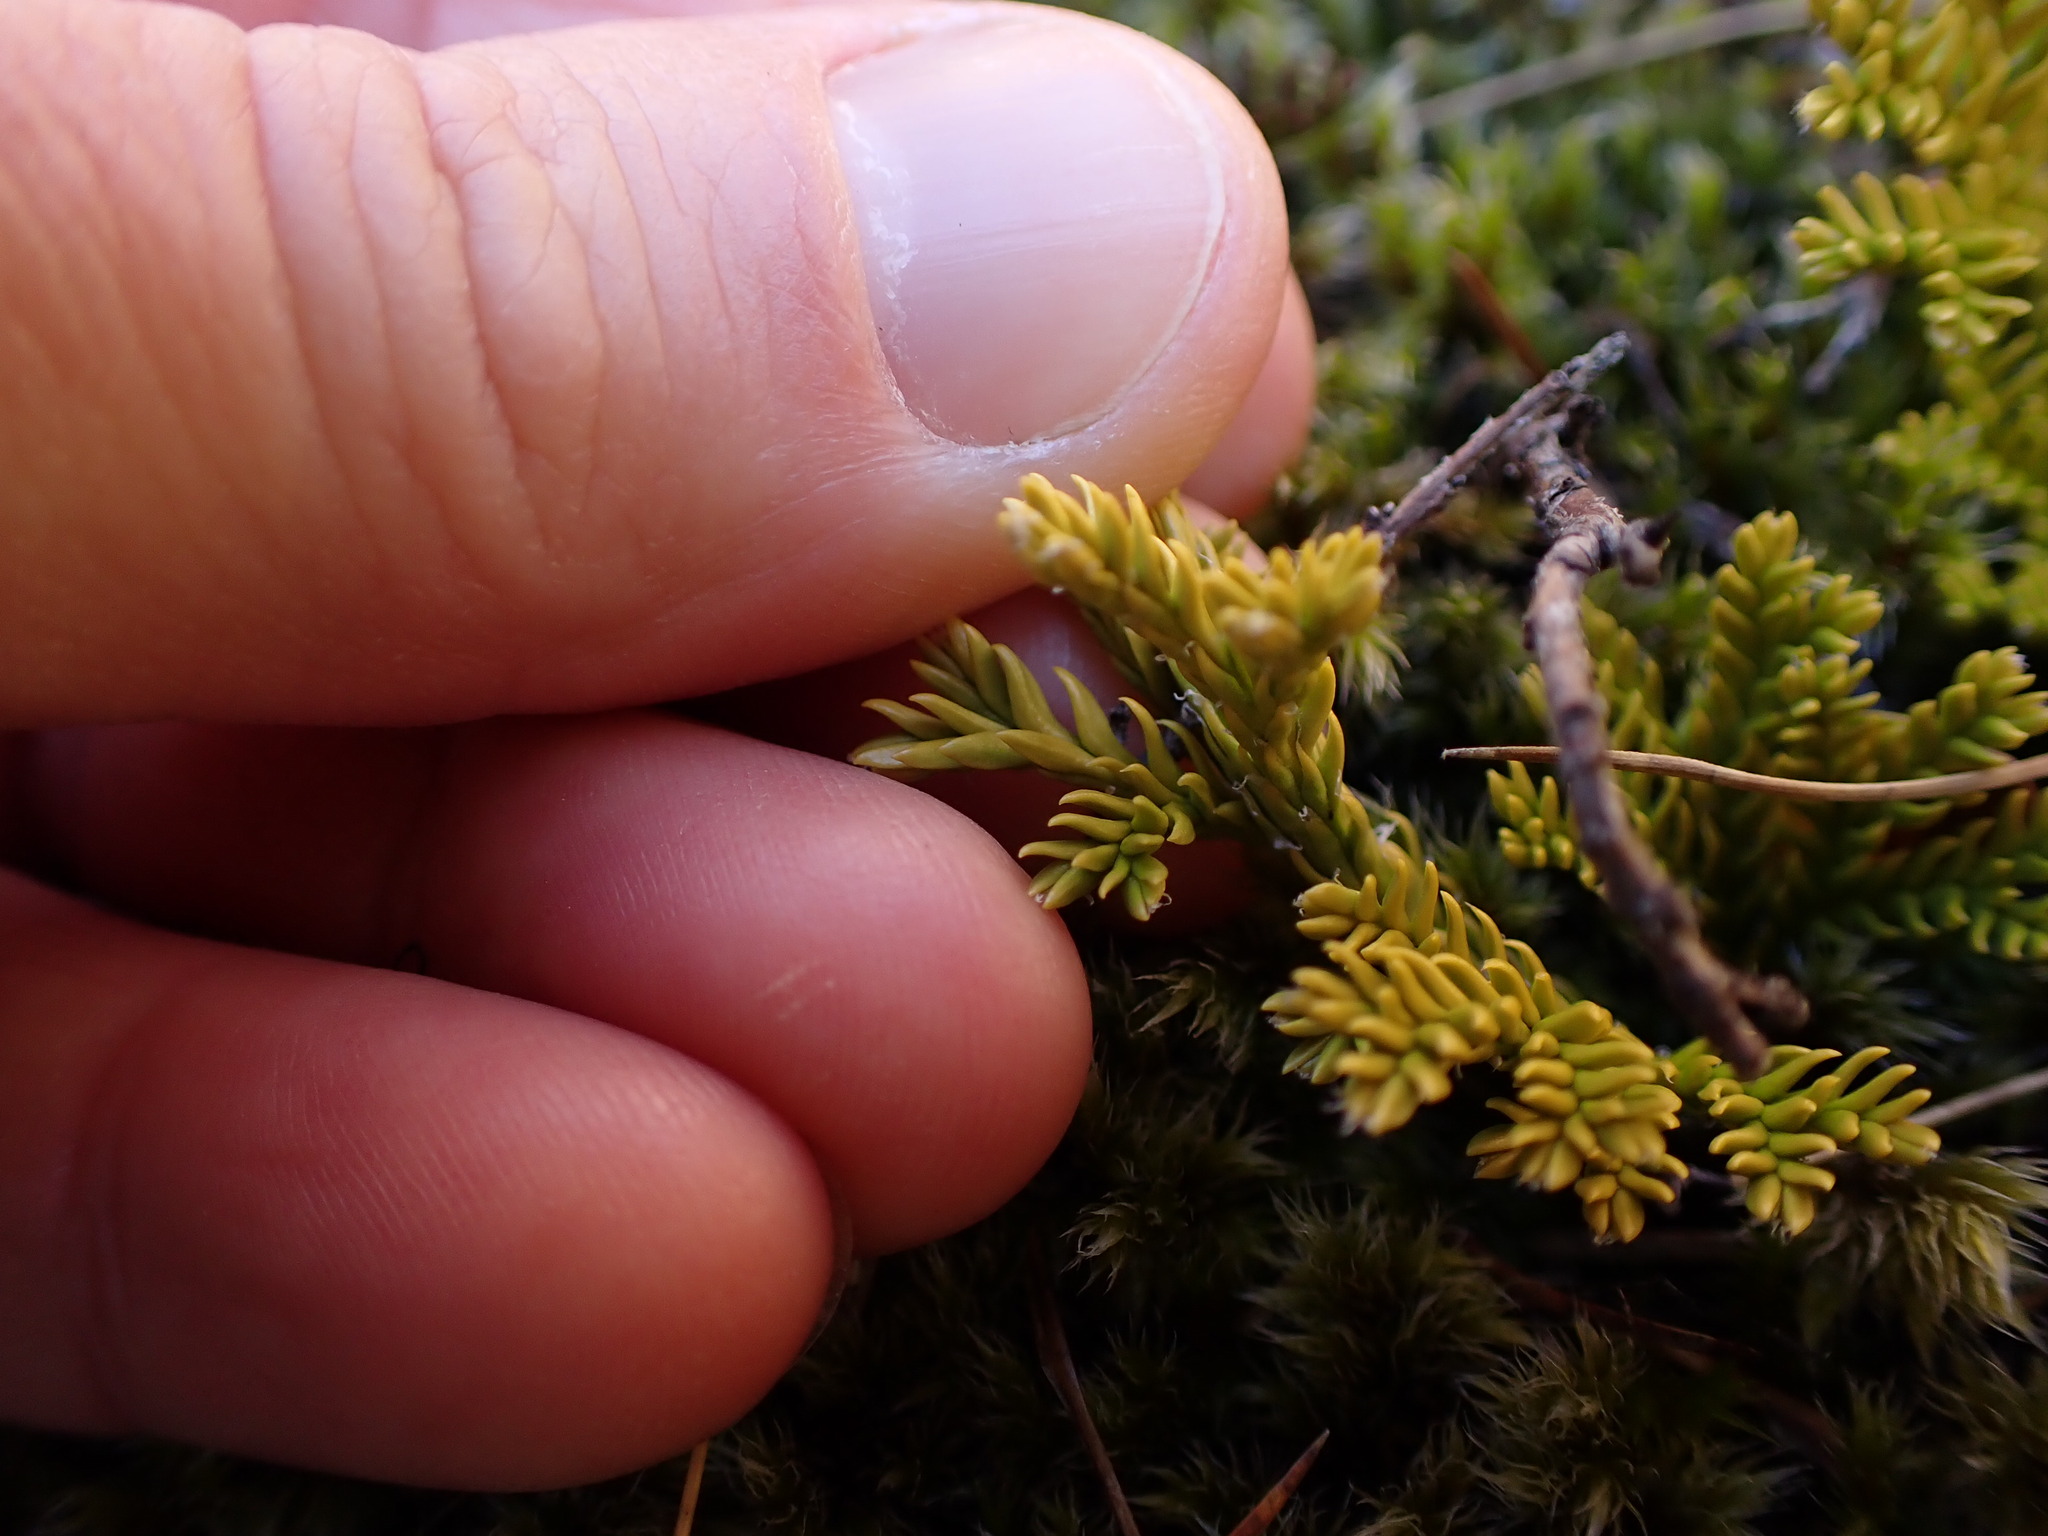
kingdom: Plantae
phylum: Tracheophyta
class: Lycopodiopsida
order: Lycopodiales
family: Lycopodiaceae
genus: Diphasium
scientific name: Diphasium scariosum
